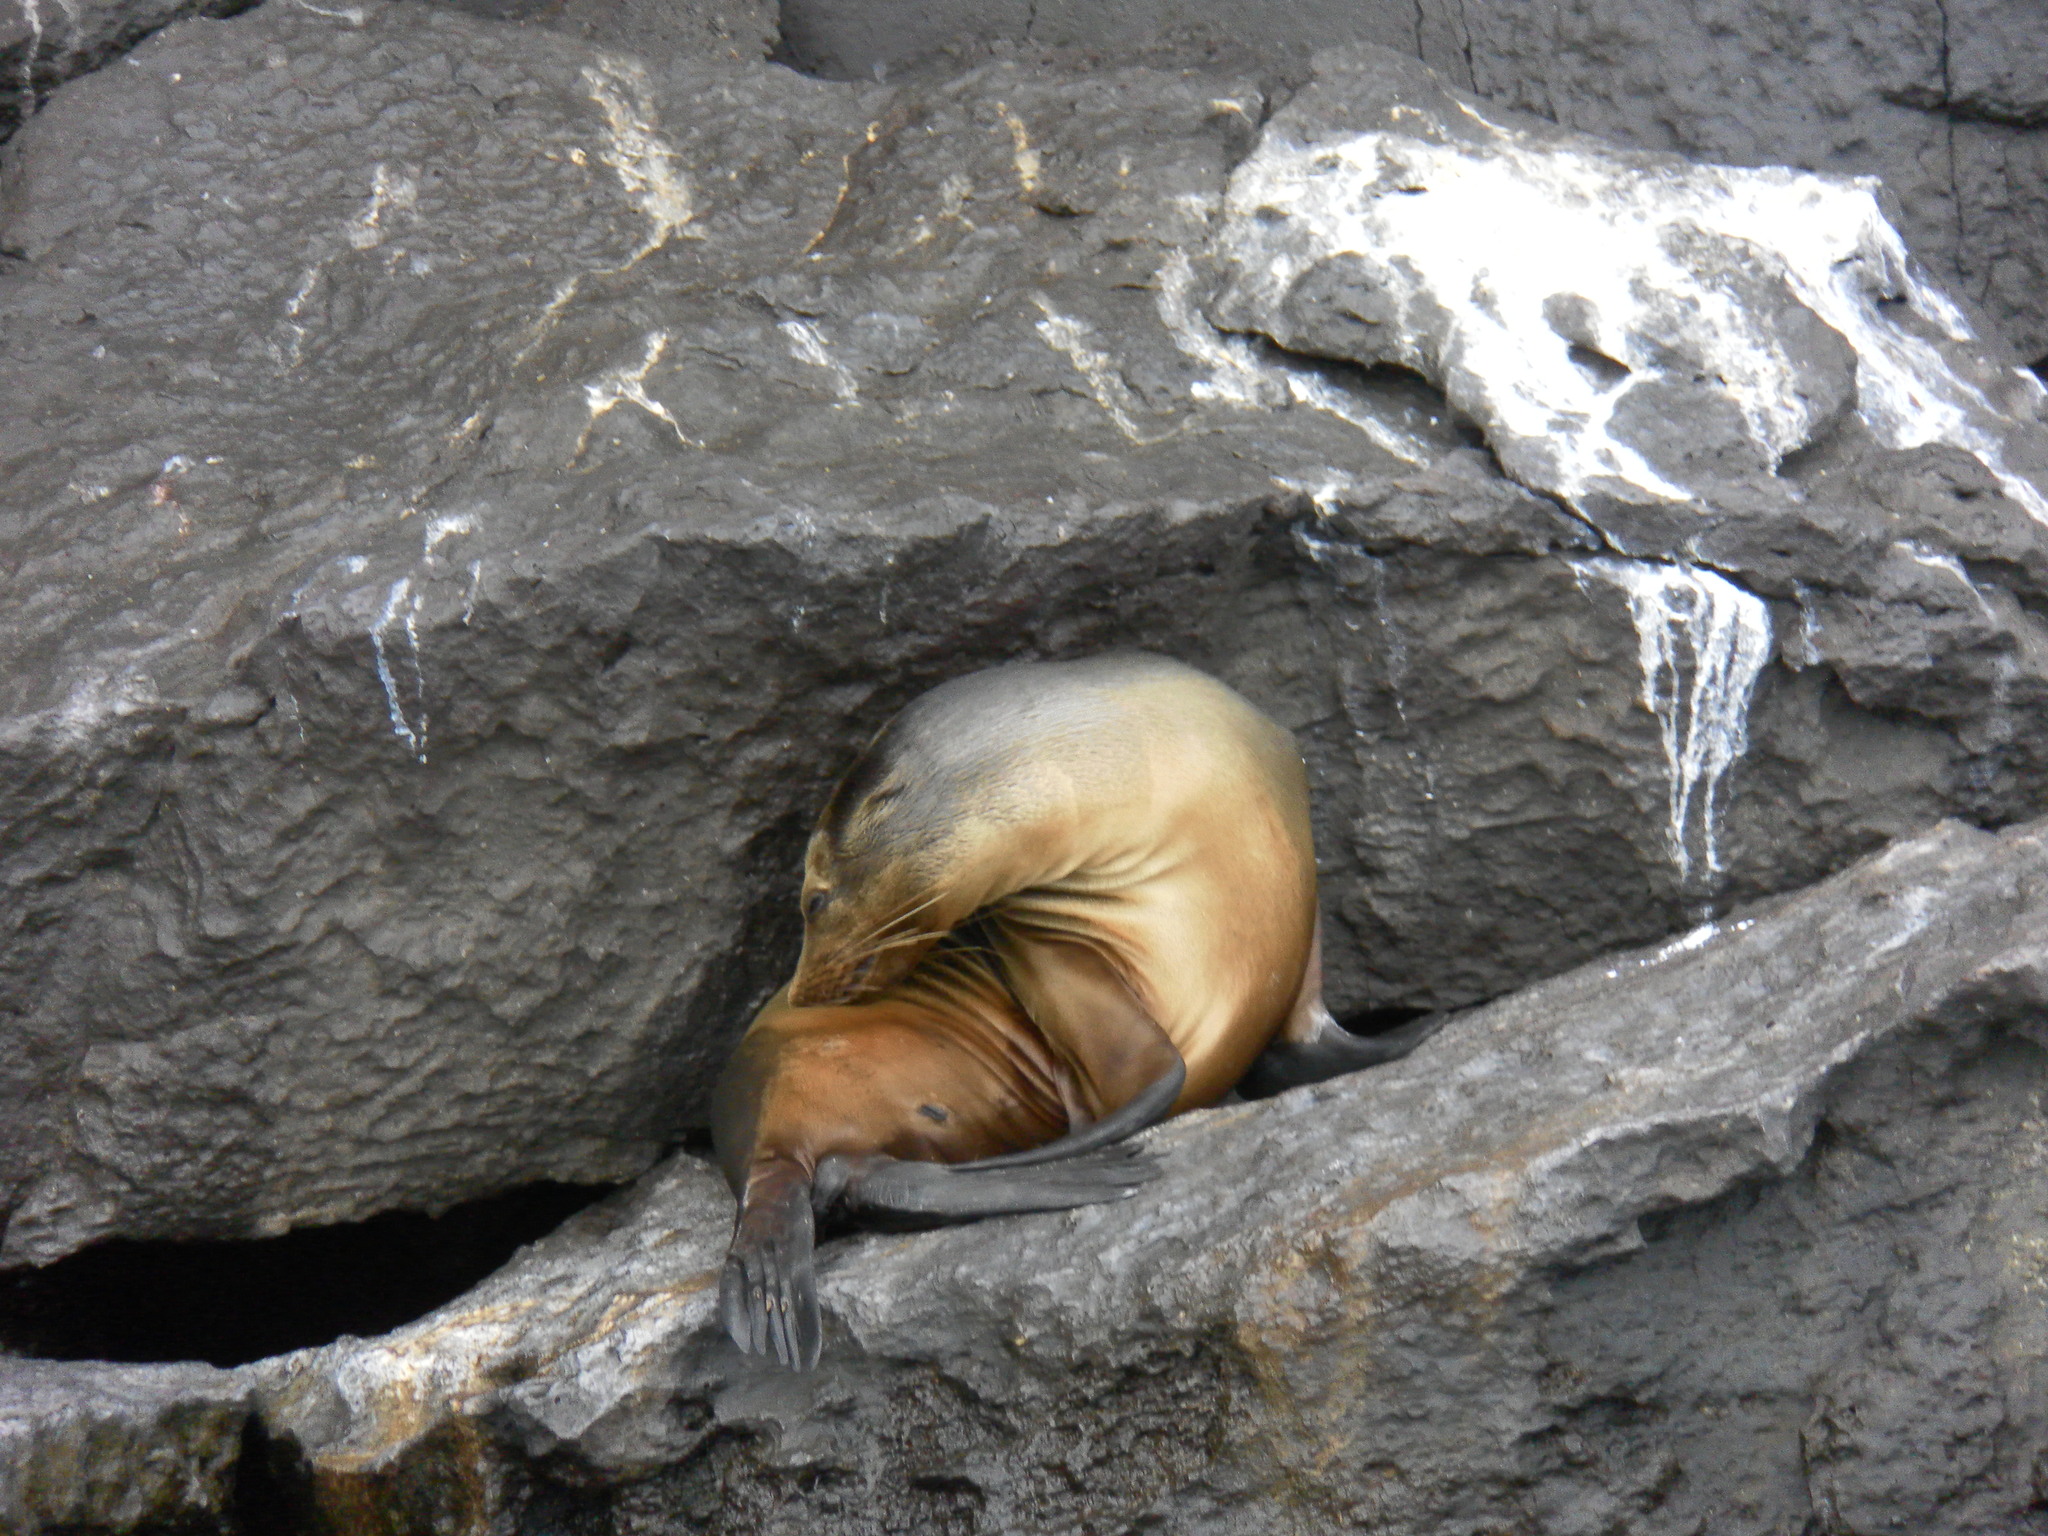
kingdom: Animalia
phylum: Chordata
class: Mammalia
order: Carnivora
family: Otariidae
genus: Zalophus
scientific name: Zalophus wollebaeki
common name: Galapagos sea lion
